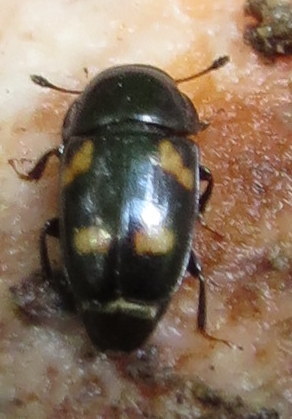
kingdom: Animalia
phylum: Arthropoda
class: Insecta
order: Coleoptera
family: Nitidulidae
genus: Glischrochilus
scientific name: Glischrochilus quadrisignatus
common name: Picnic beetle
